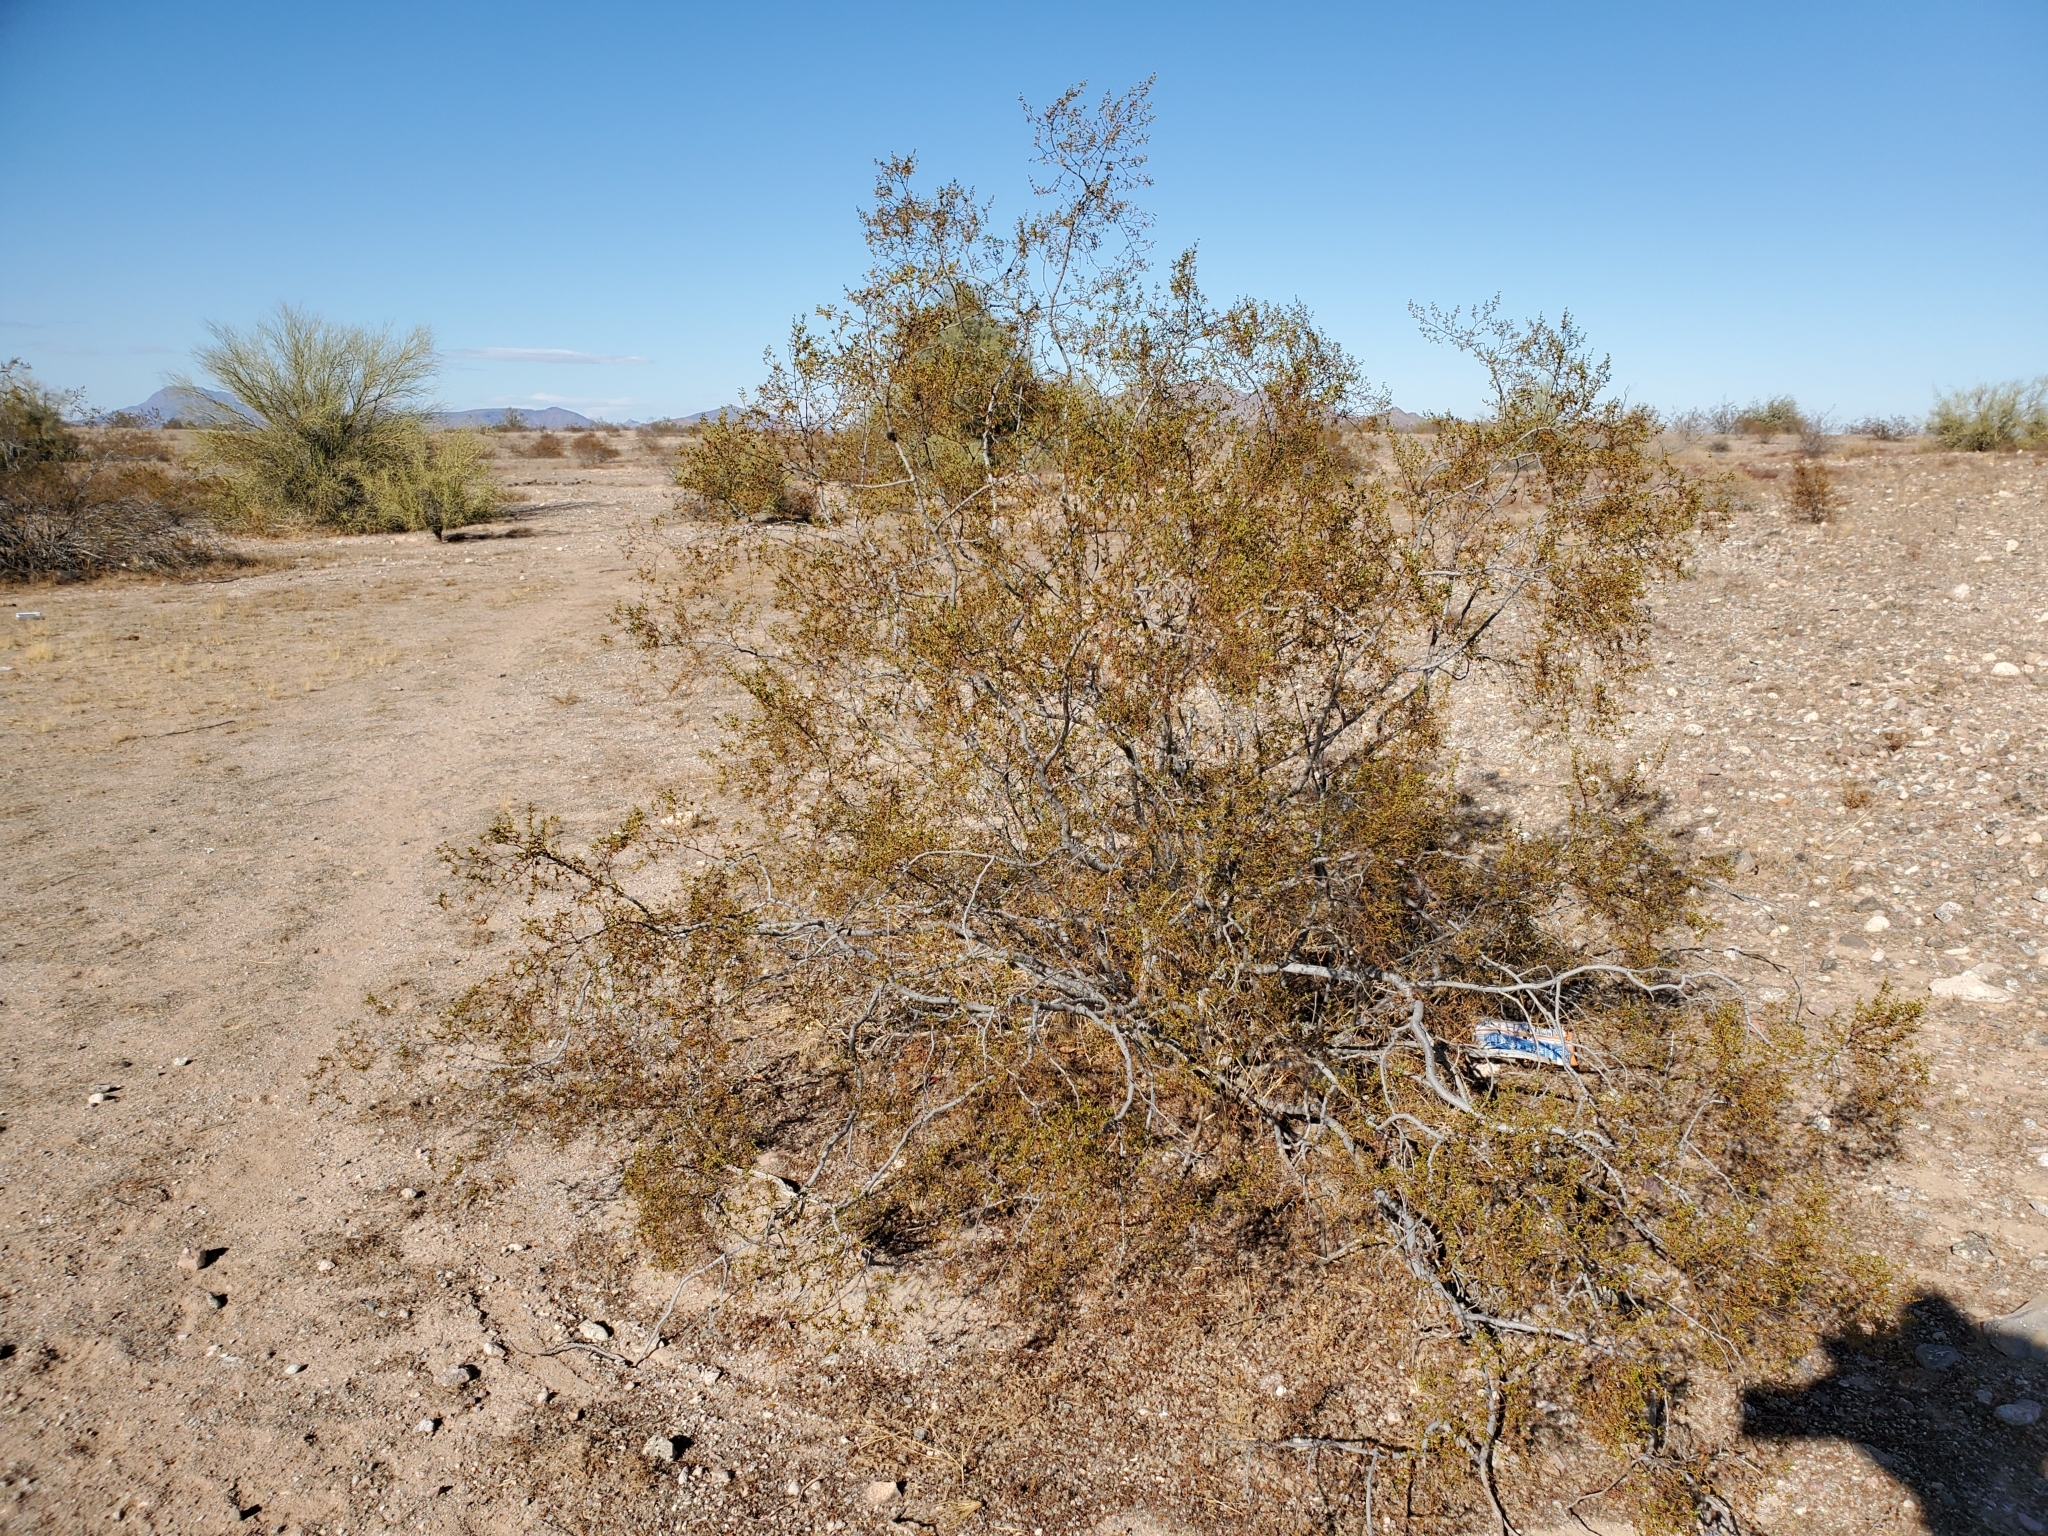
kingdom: Plantae
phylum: Tracheophyta
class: Magnoliopsida
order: Zygophyllales
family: Zygophyllaceae
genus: Larrea
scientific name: Larrea tridentata
